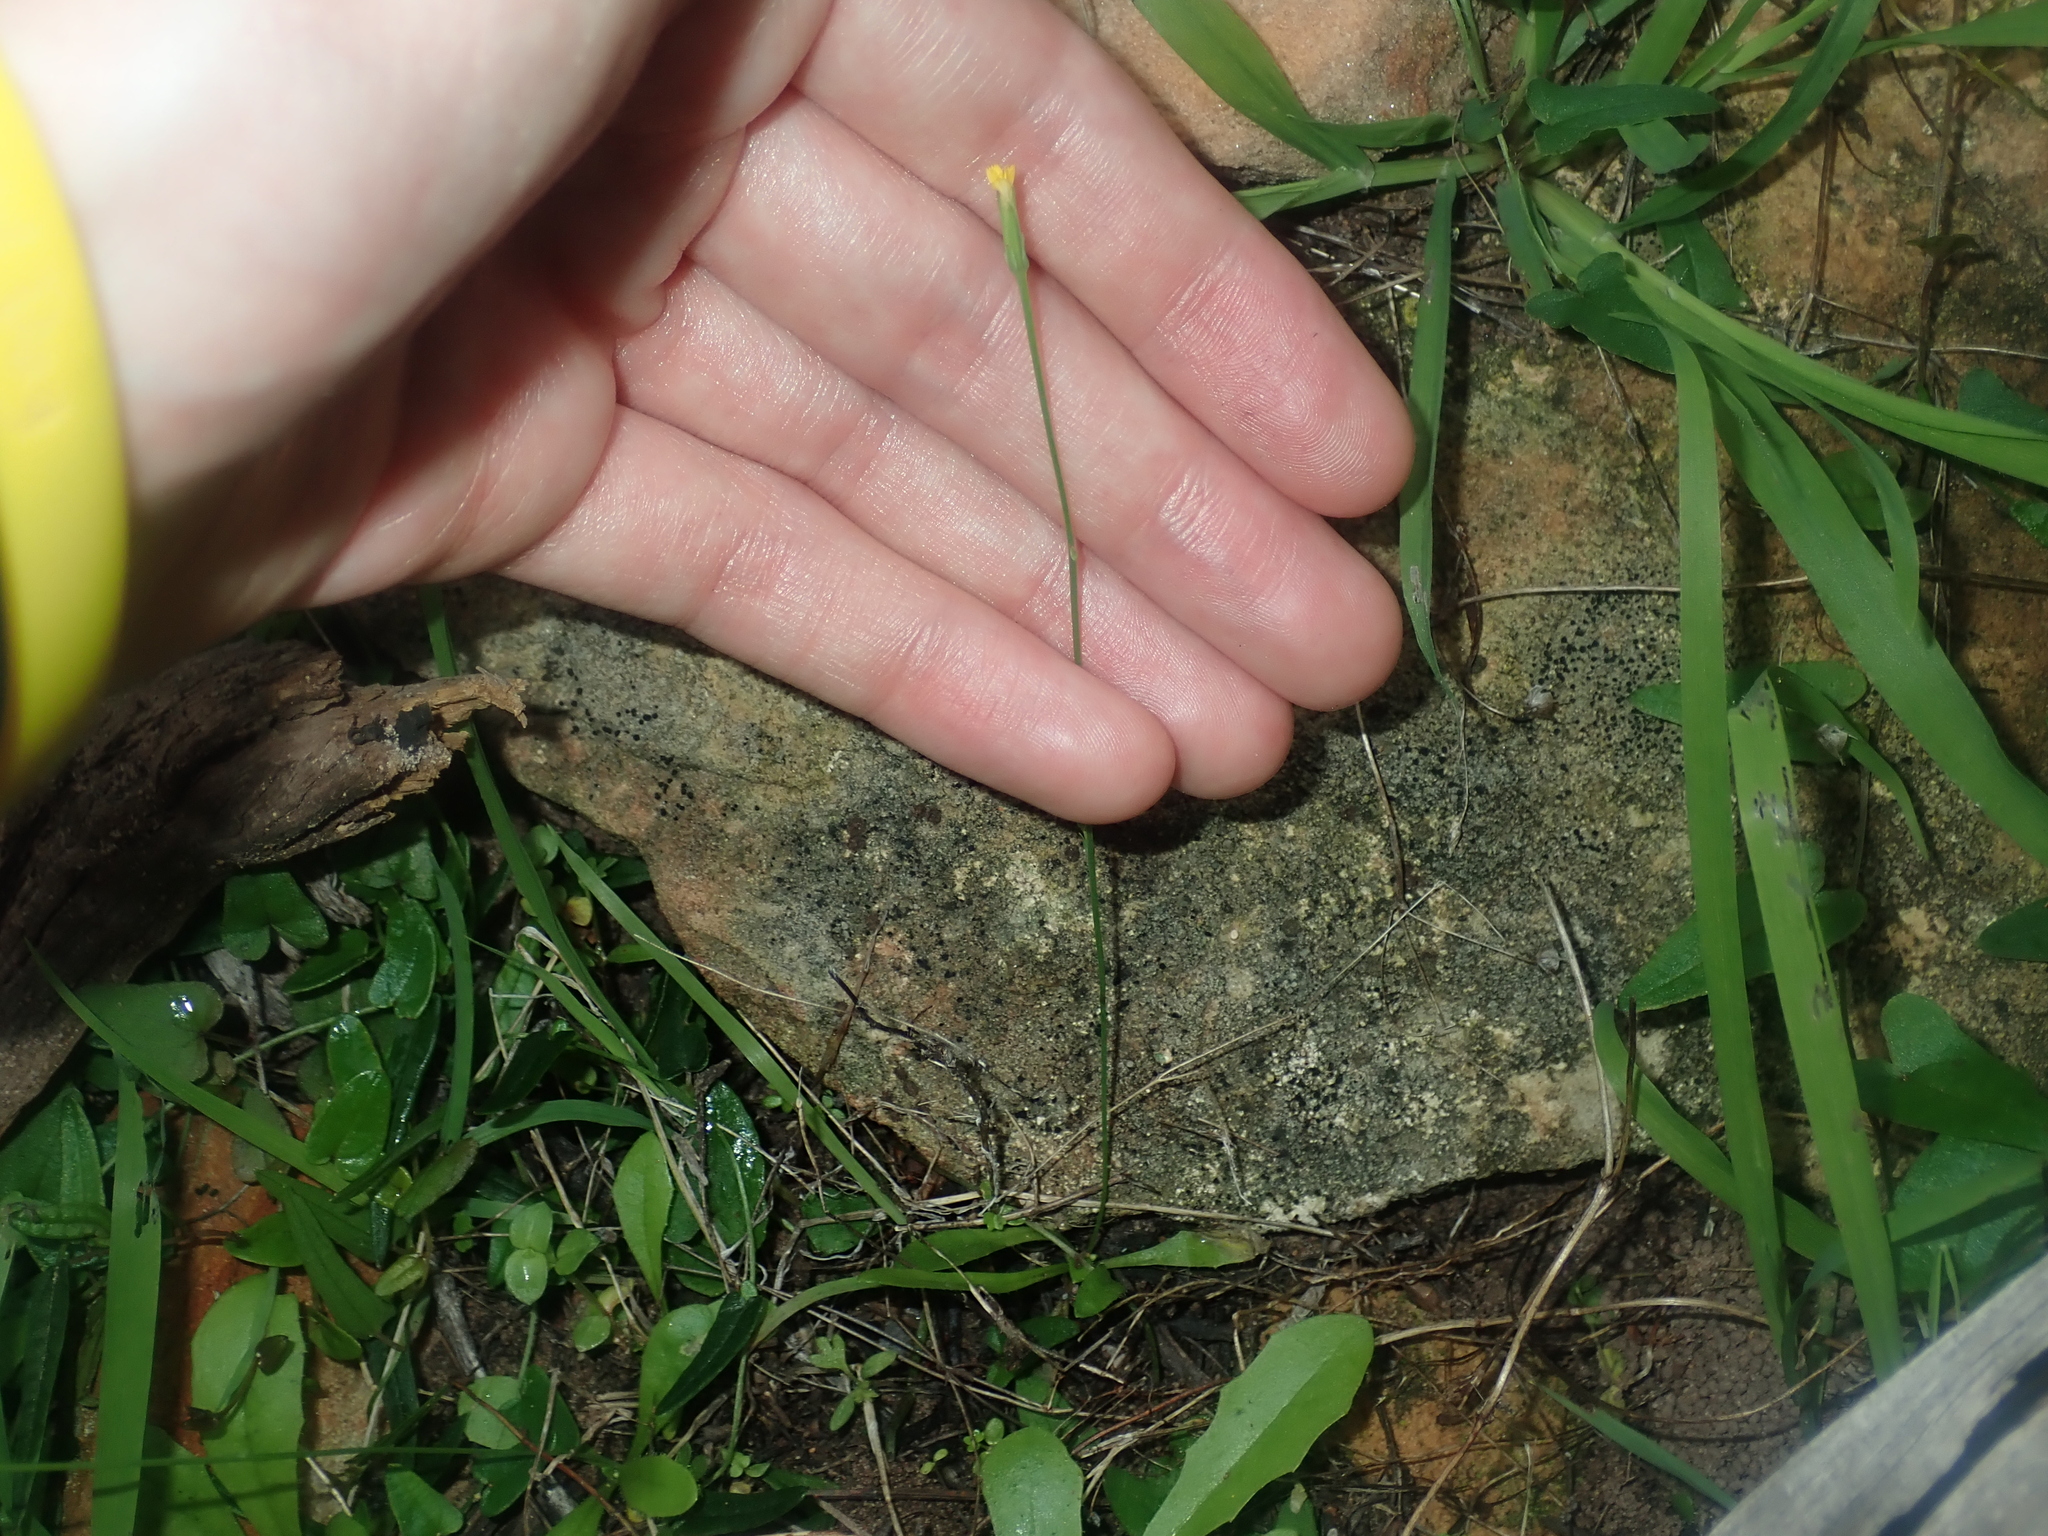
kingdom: Plantae
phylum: Tracheophyta
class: Magnoliopsida
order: Asterales
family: Asteraceae
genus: Hypochaeris
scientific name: Hypochaeris glabra
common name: Smooth catsear
